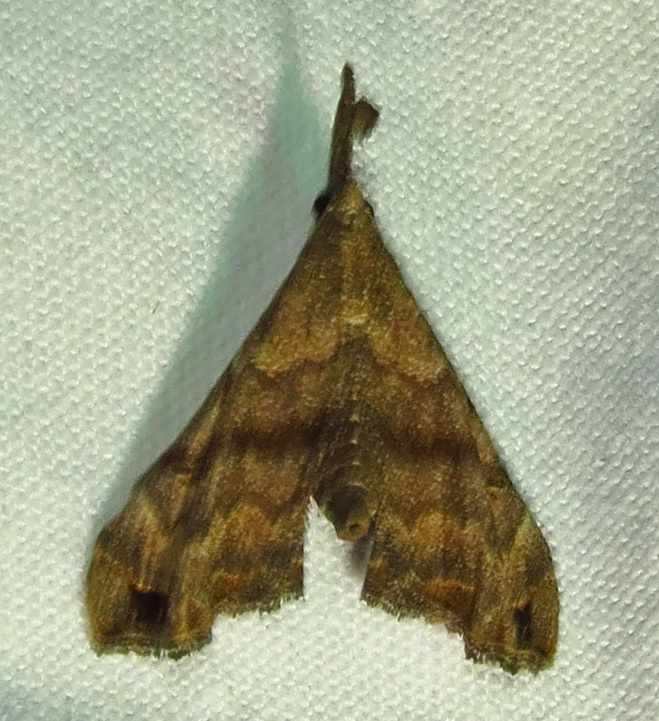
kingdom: Animalia
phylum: Arthropoda
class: Insecta
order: Lepidoptera
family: Erebidae
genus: Palthis
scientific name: Palthis asopialis
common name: Faint-spotted palthis moth
